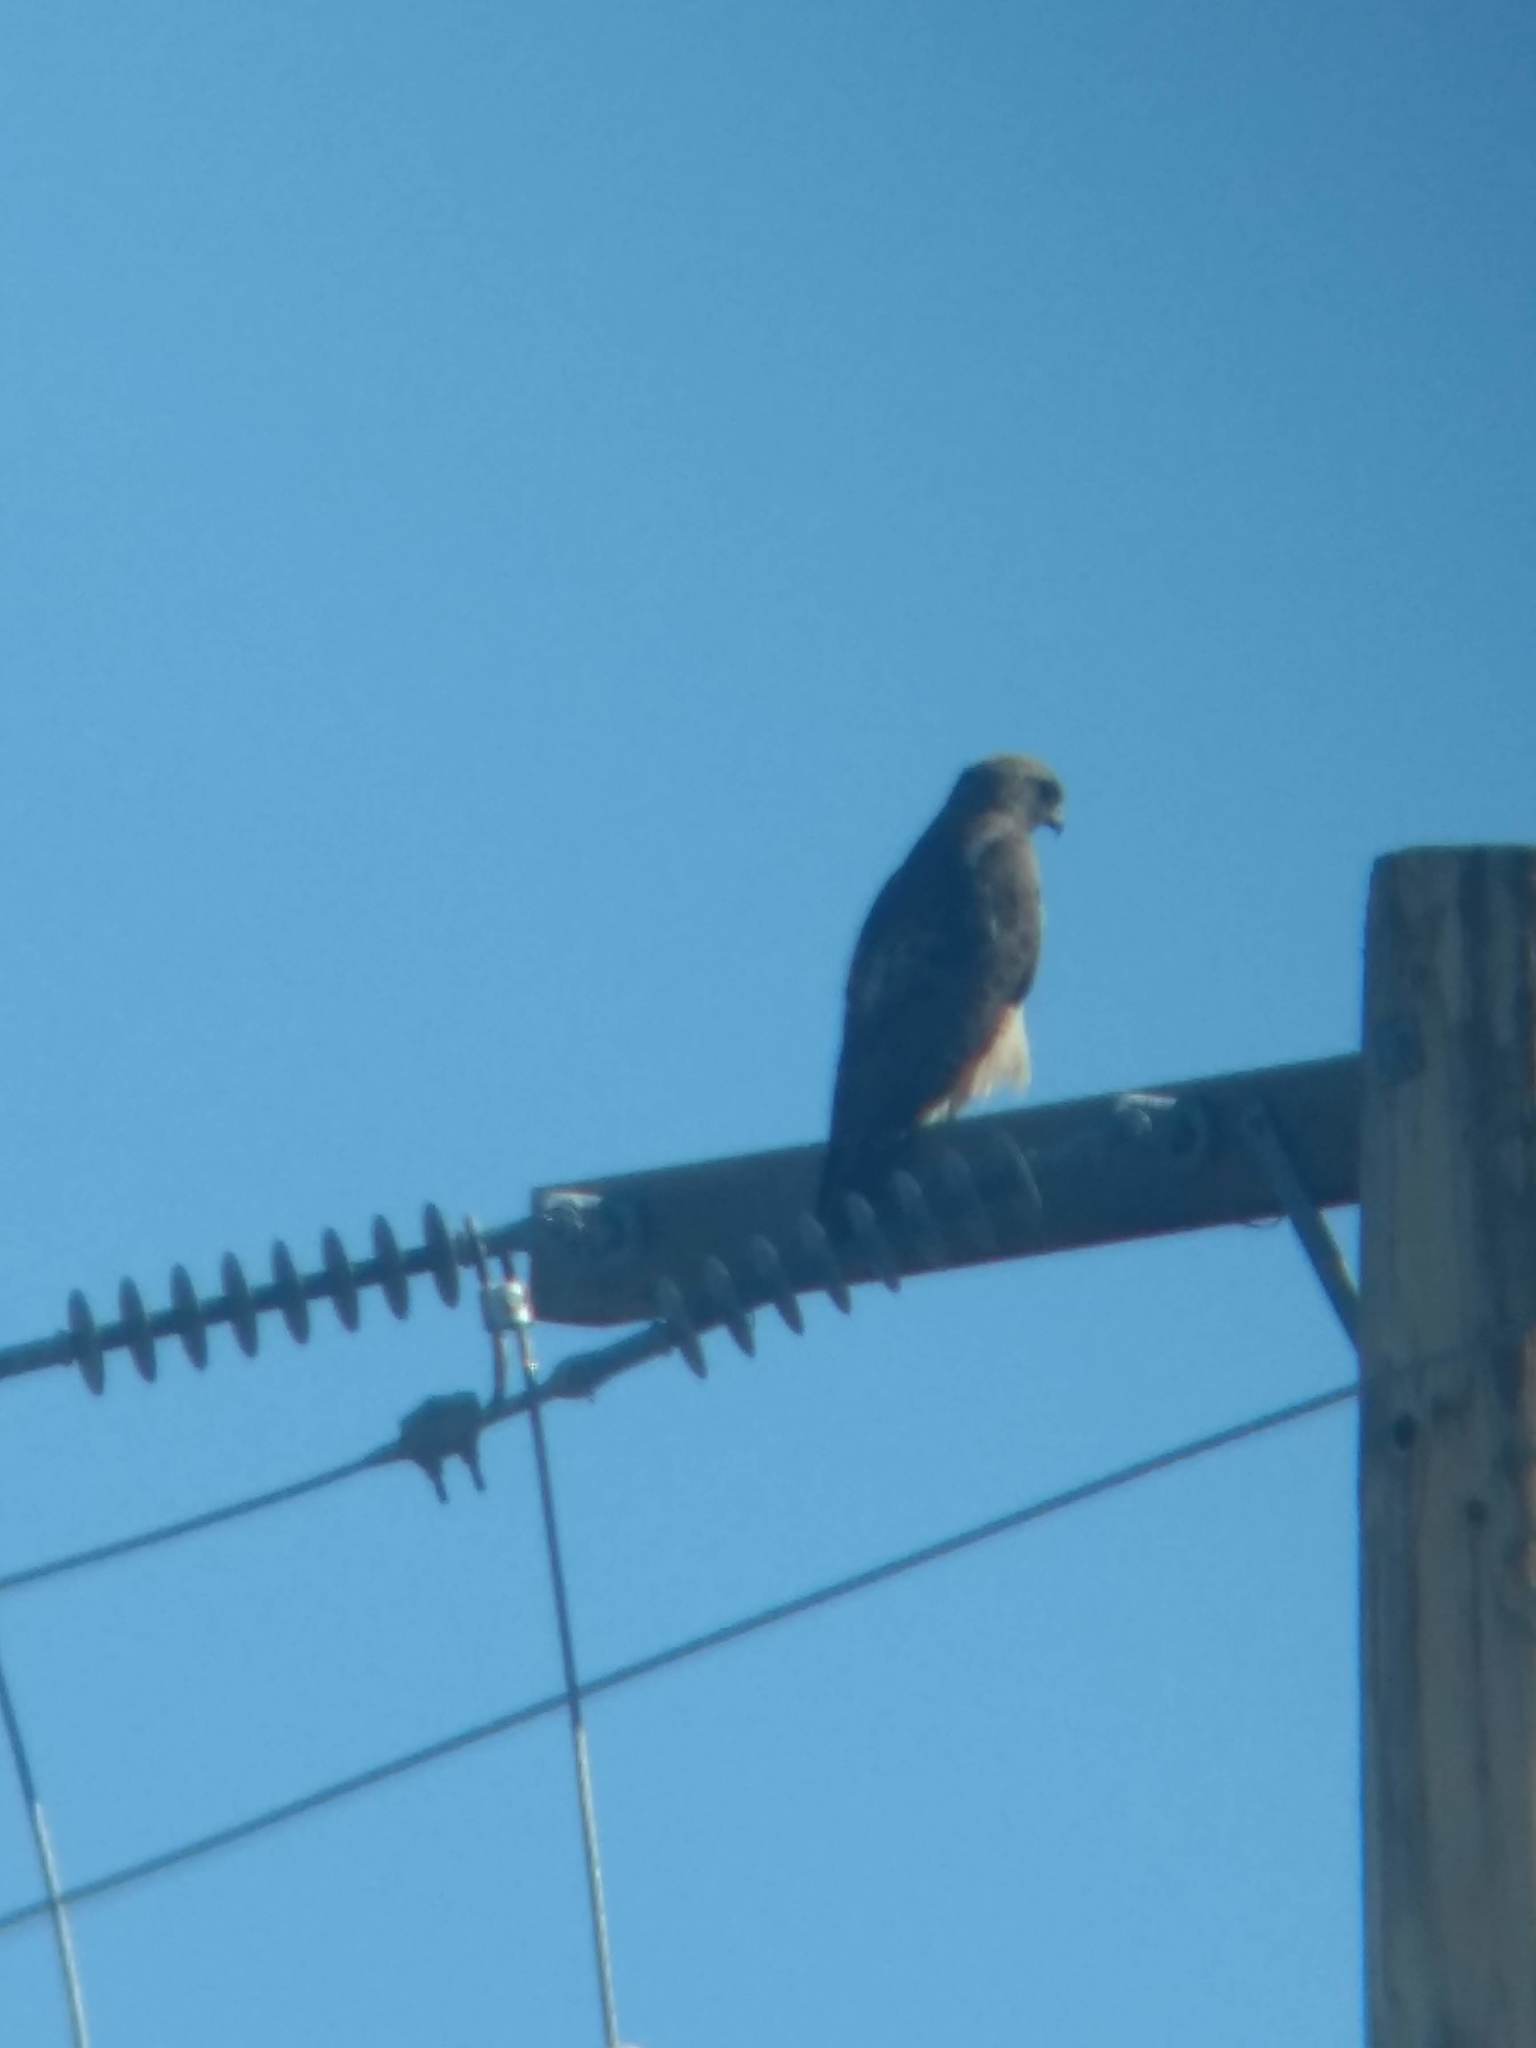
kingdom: Animalia
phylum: Chordata
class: Aves
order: Accipitriformes
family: Accipitridae
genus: Buteo
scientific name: Buteo jamaicensis
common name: Red-tailed hawk
